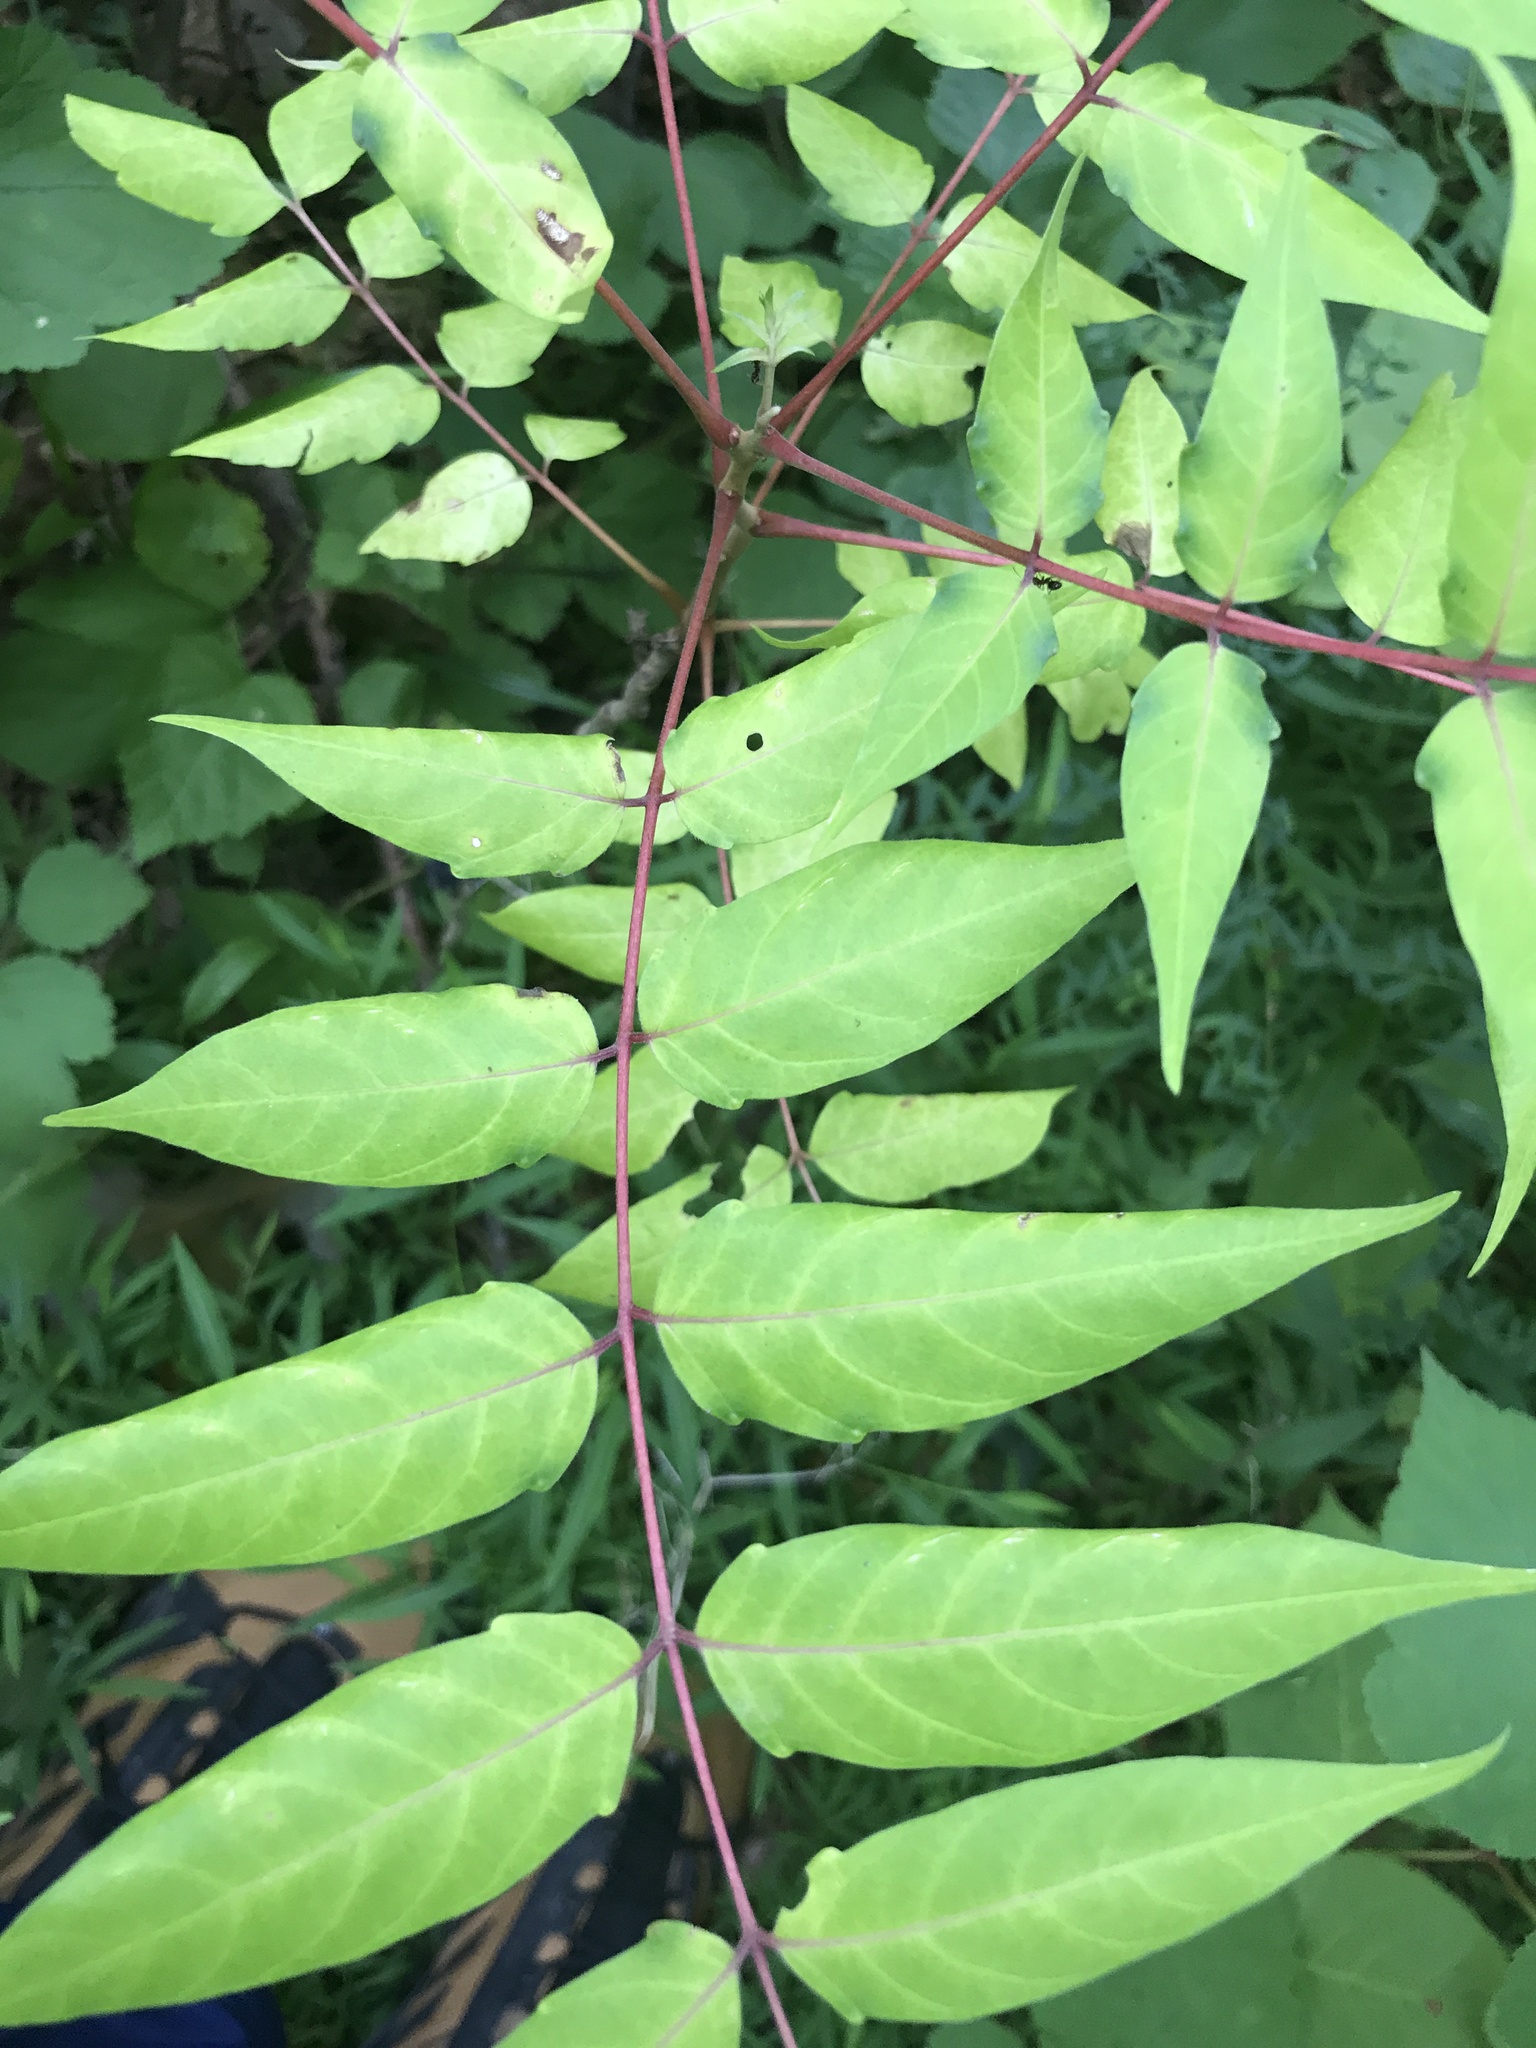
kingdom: Plantae
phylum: Tracheophyta
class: Magnoliopsida
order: Sapindales
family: Simaroubaceae
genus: Ailanthus
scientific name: Ailanthus altissima
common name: Tree-of-heaven
